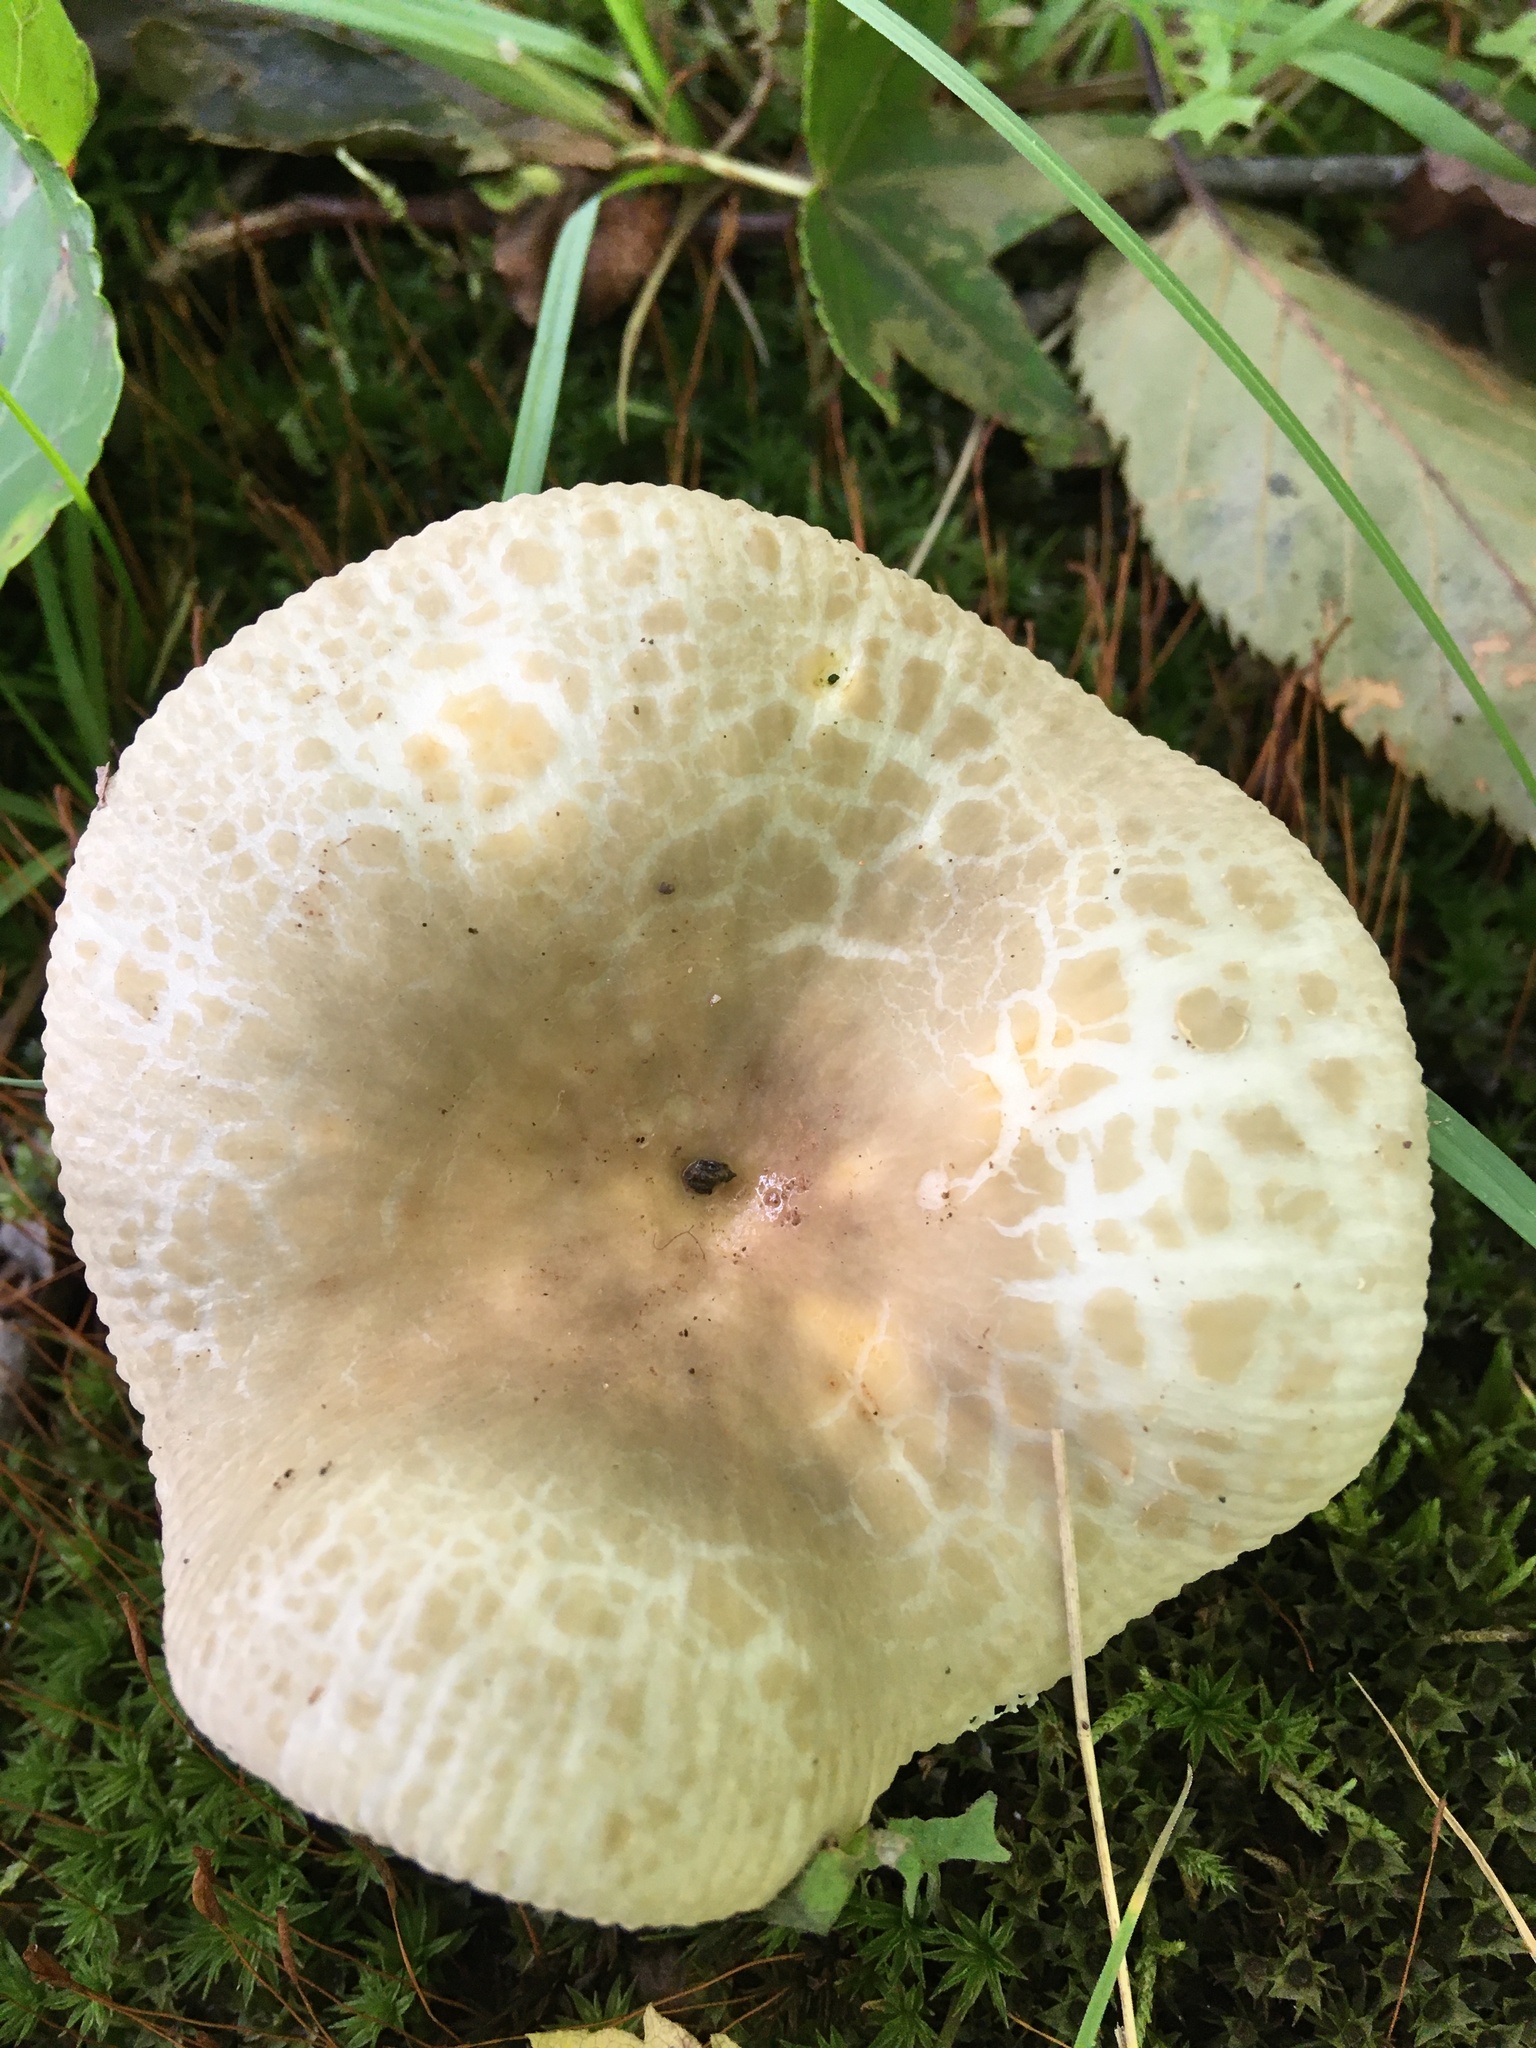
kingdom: Fungi
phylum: Basidiomycota
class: Agaricomycetes
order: Russulales
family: Russulaceae
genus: Russula
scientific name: Russula parvovirescens
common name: Blue-green cracking russula
